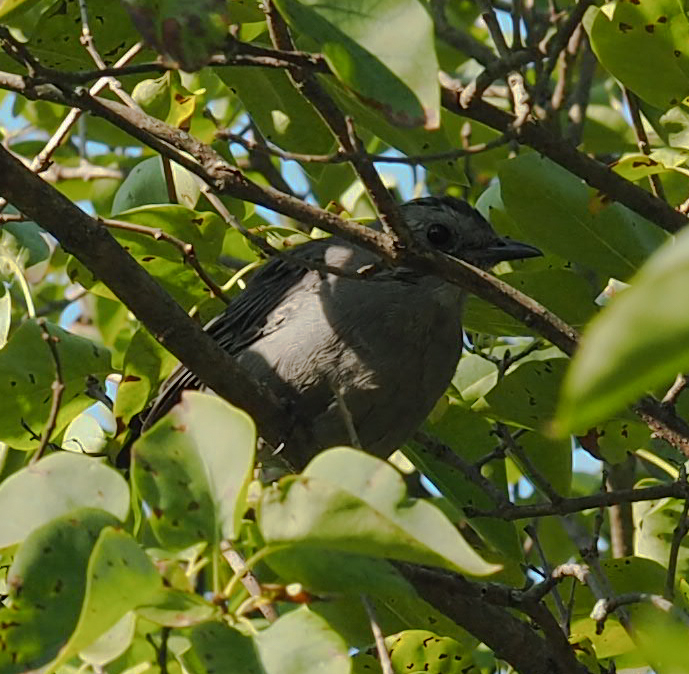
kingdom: Animalia
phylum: Chordata
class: Aves
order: Passeriformes
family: Mimidae
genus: Dumetella
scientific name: Dumetella carolinensis
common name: Gray catbird
